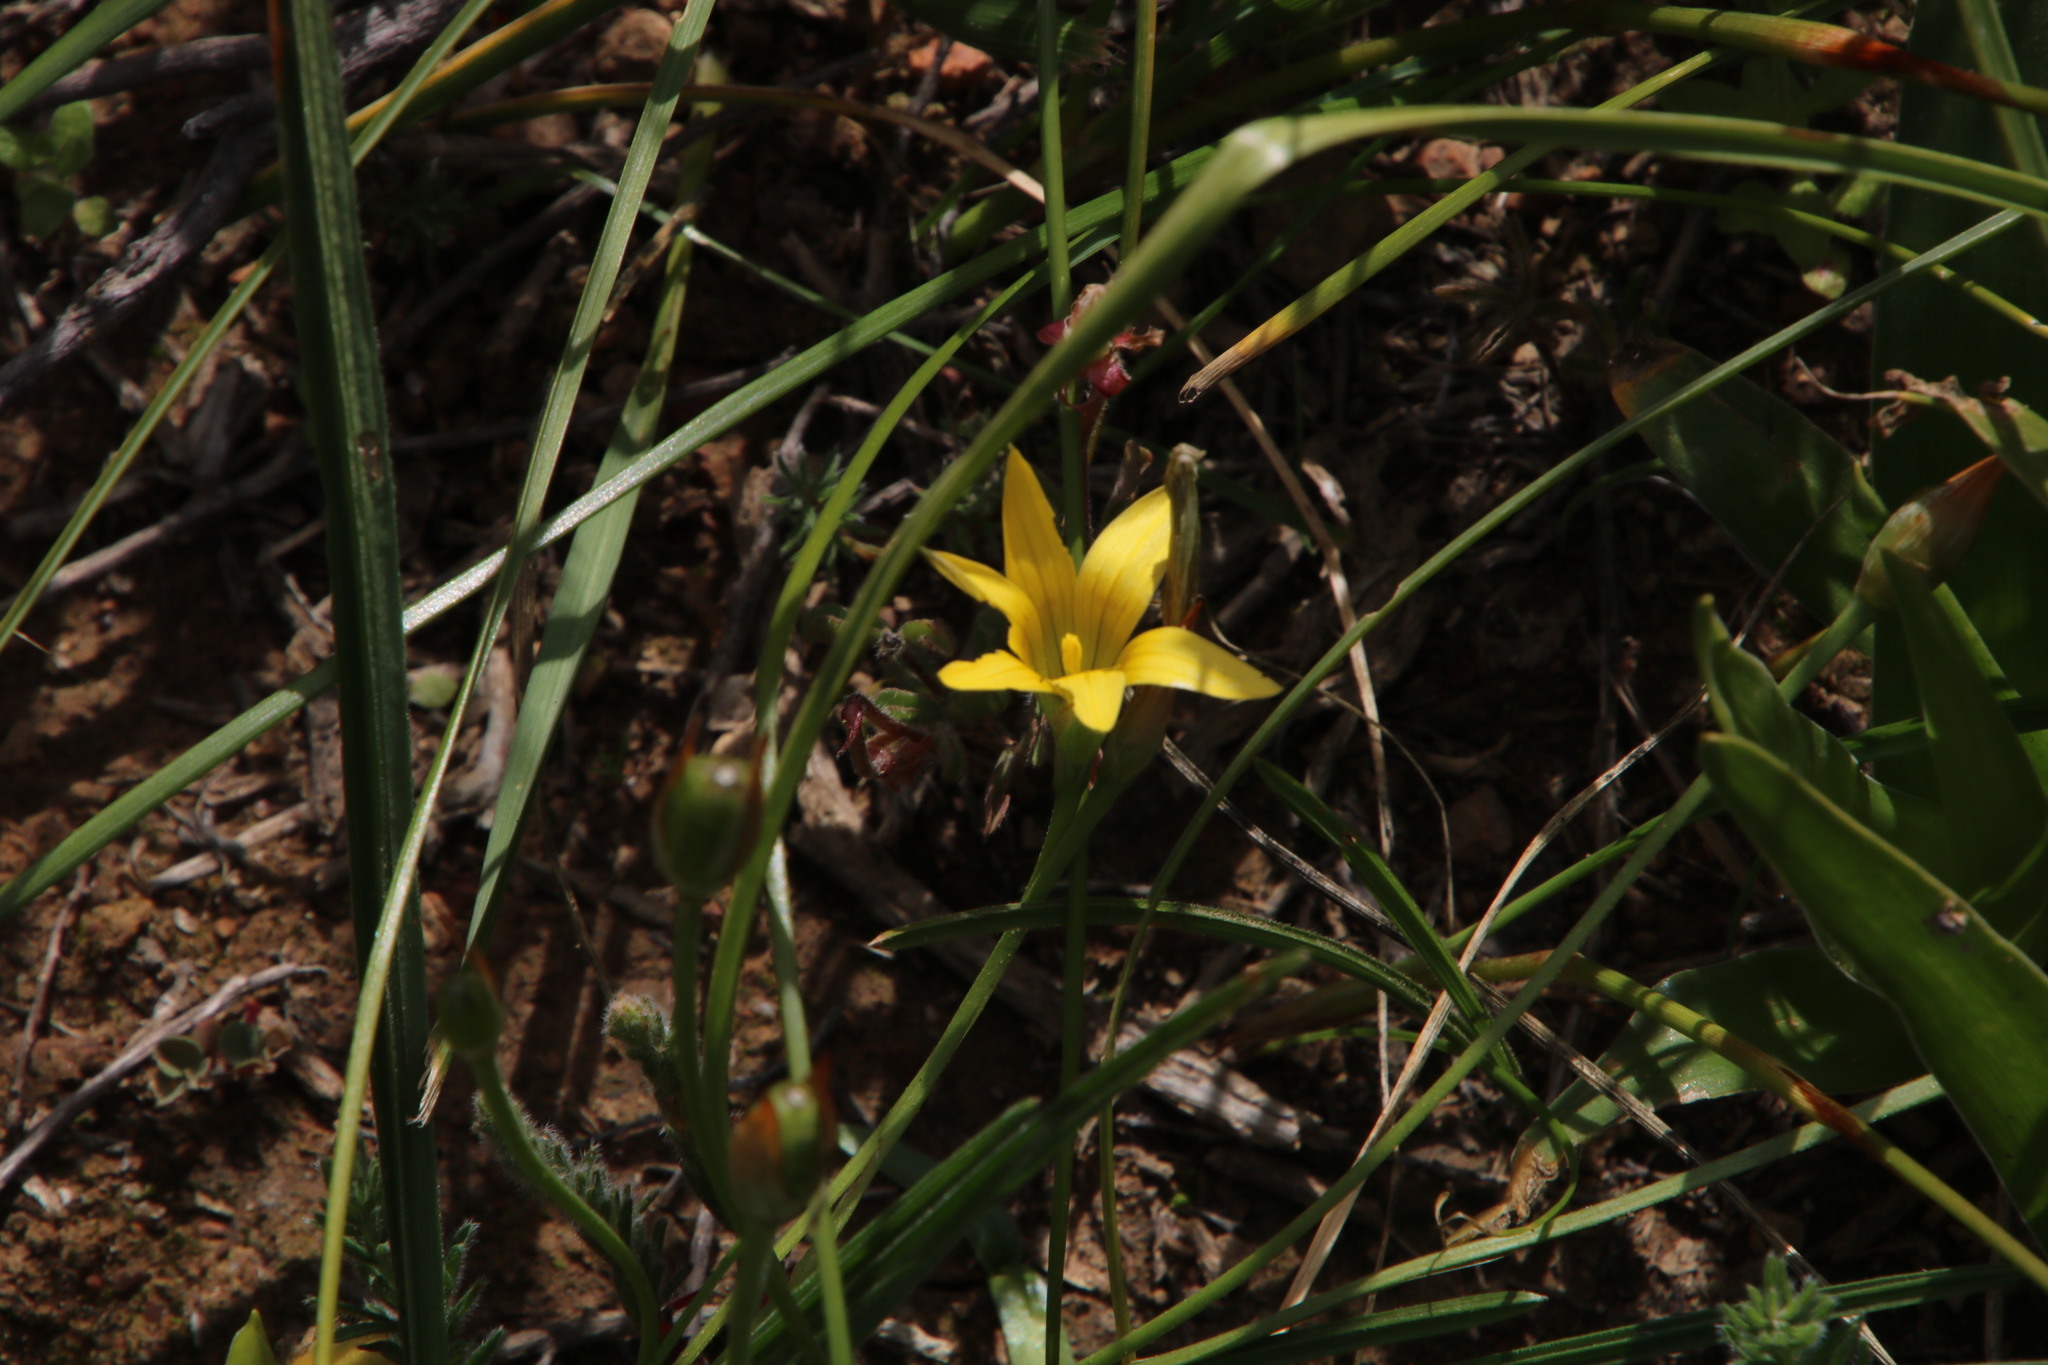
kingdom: Plantae
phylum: Tracheophyta
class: Liliopsida
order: Asparagales
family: Iridaceae
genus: Romulea
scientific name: Romulea hirta
